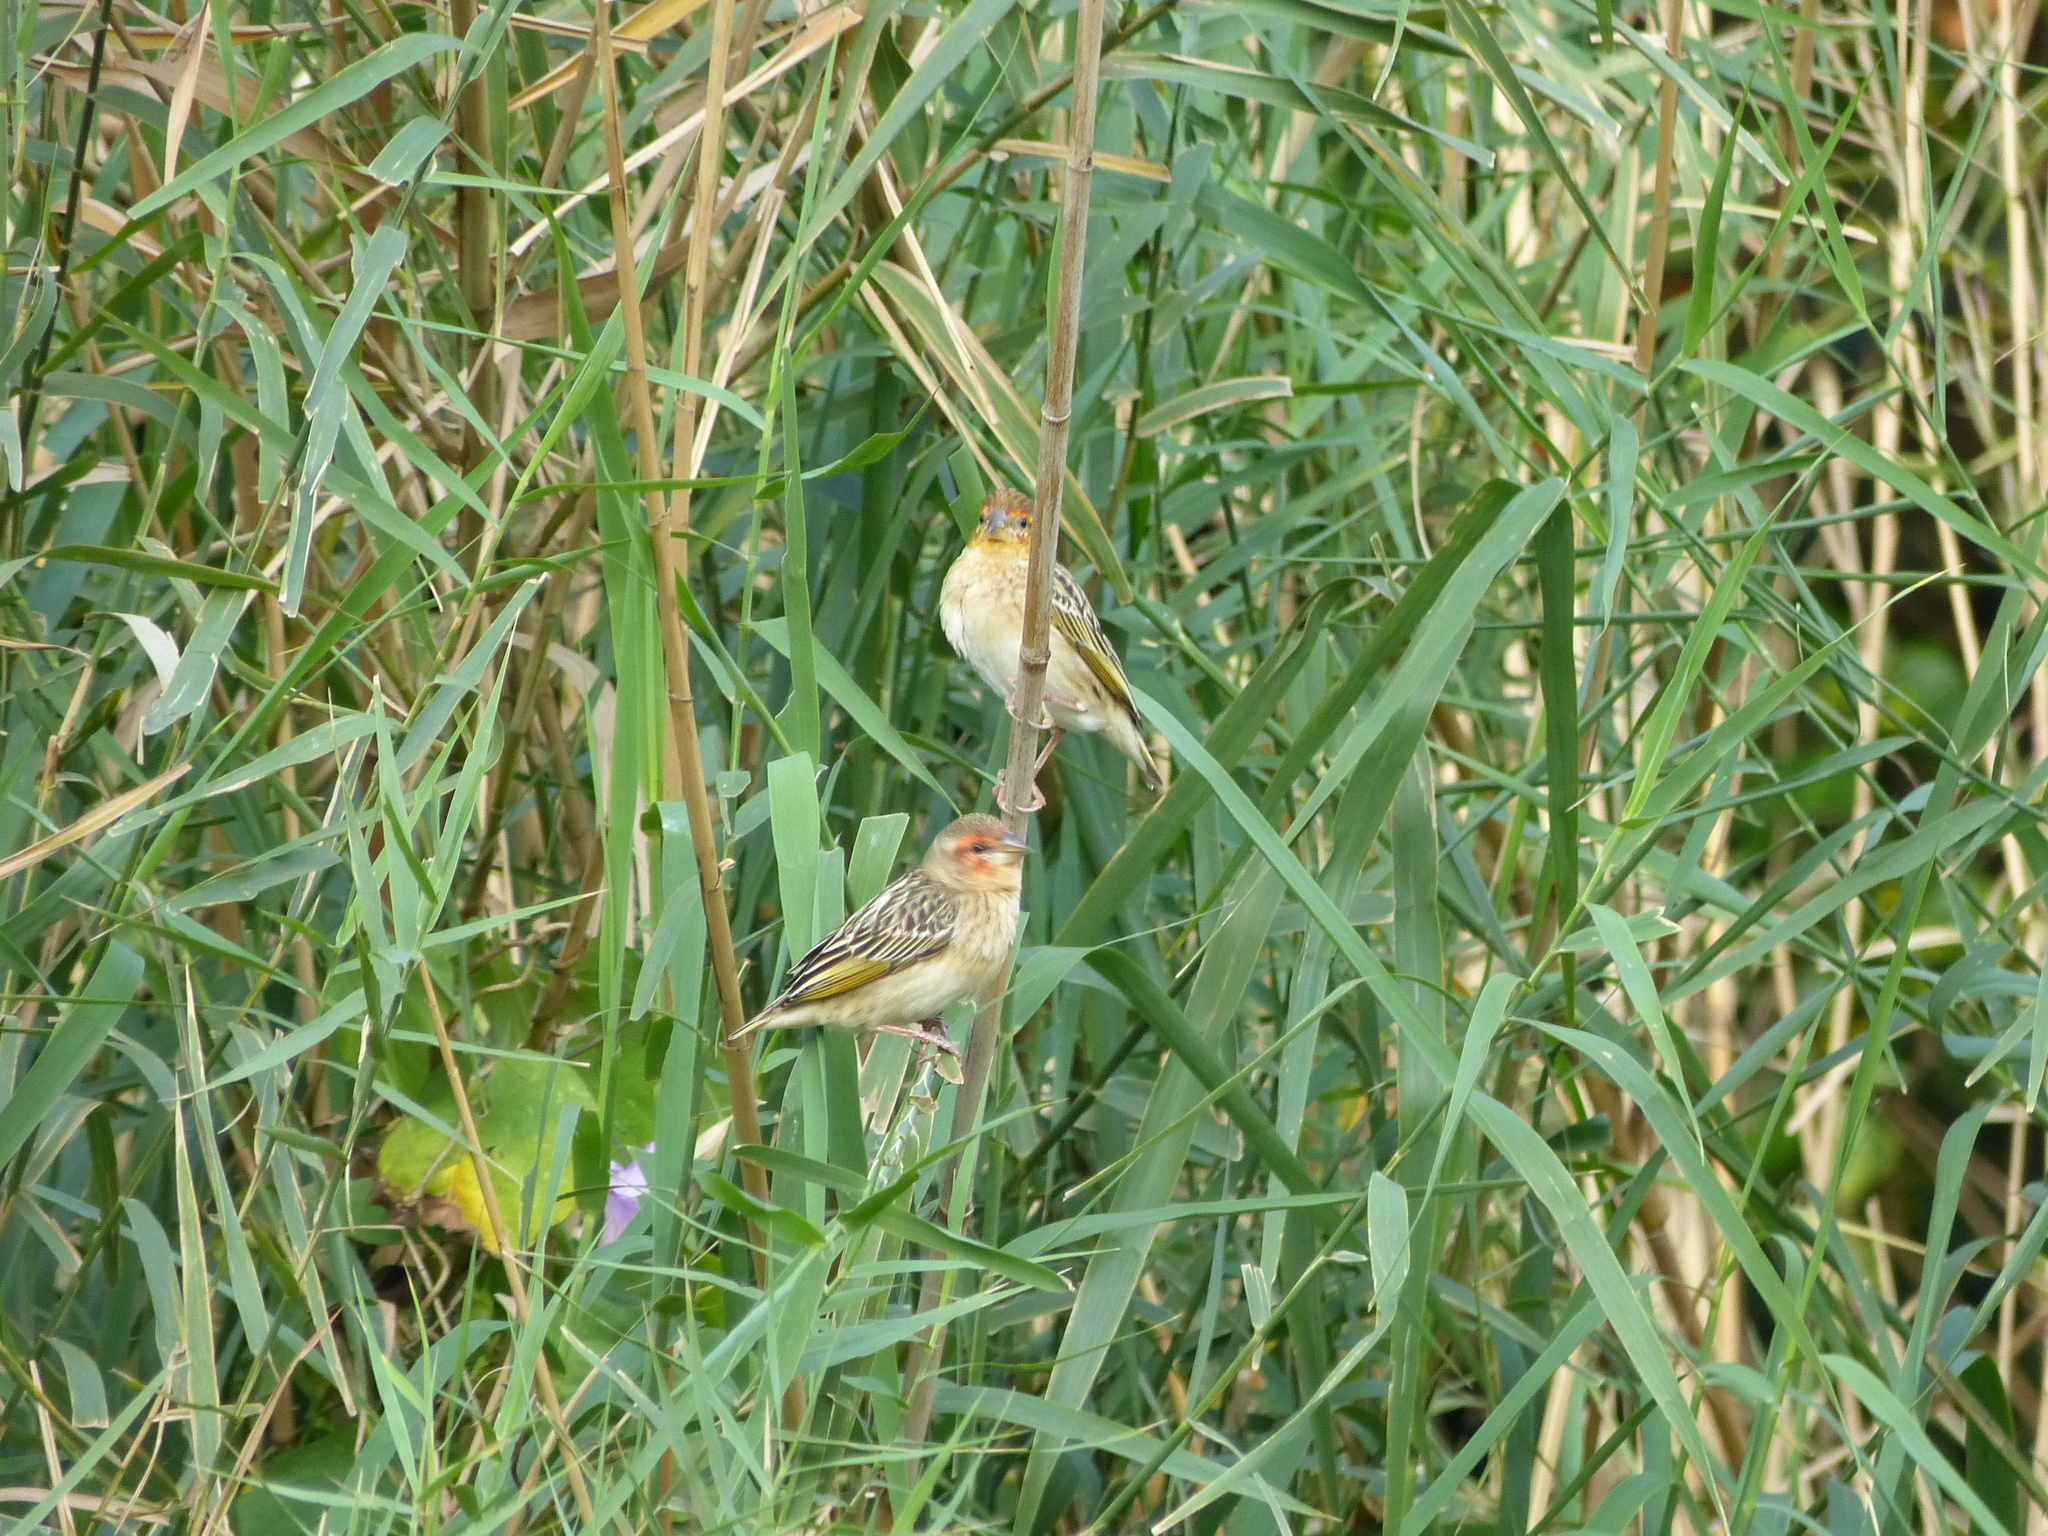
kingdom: Animalia
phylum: Chordata
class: Aves
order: Passeriformes
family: Ploceidae
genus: Quelea
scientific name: Quelea erythrops
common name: Red-headed quelea
